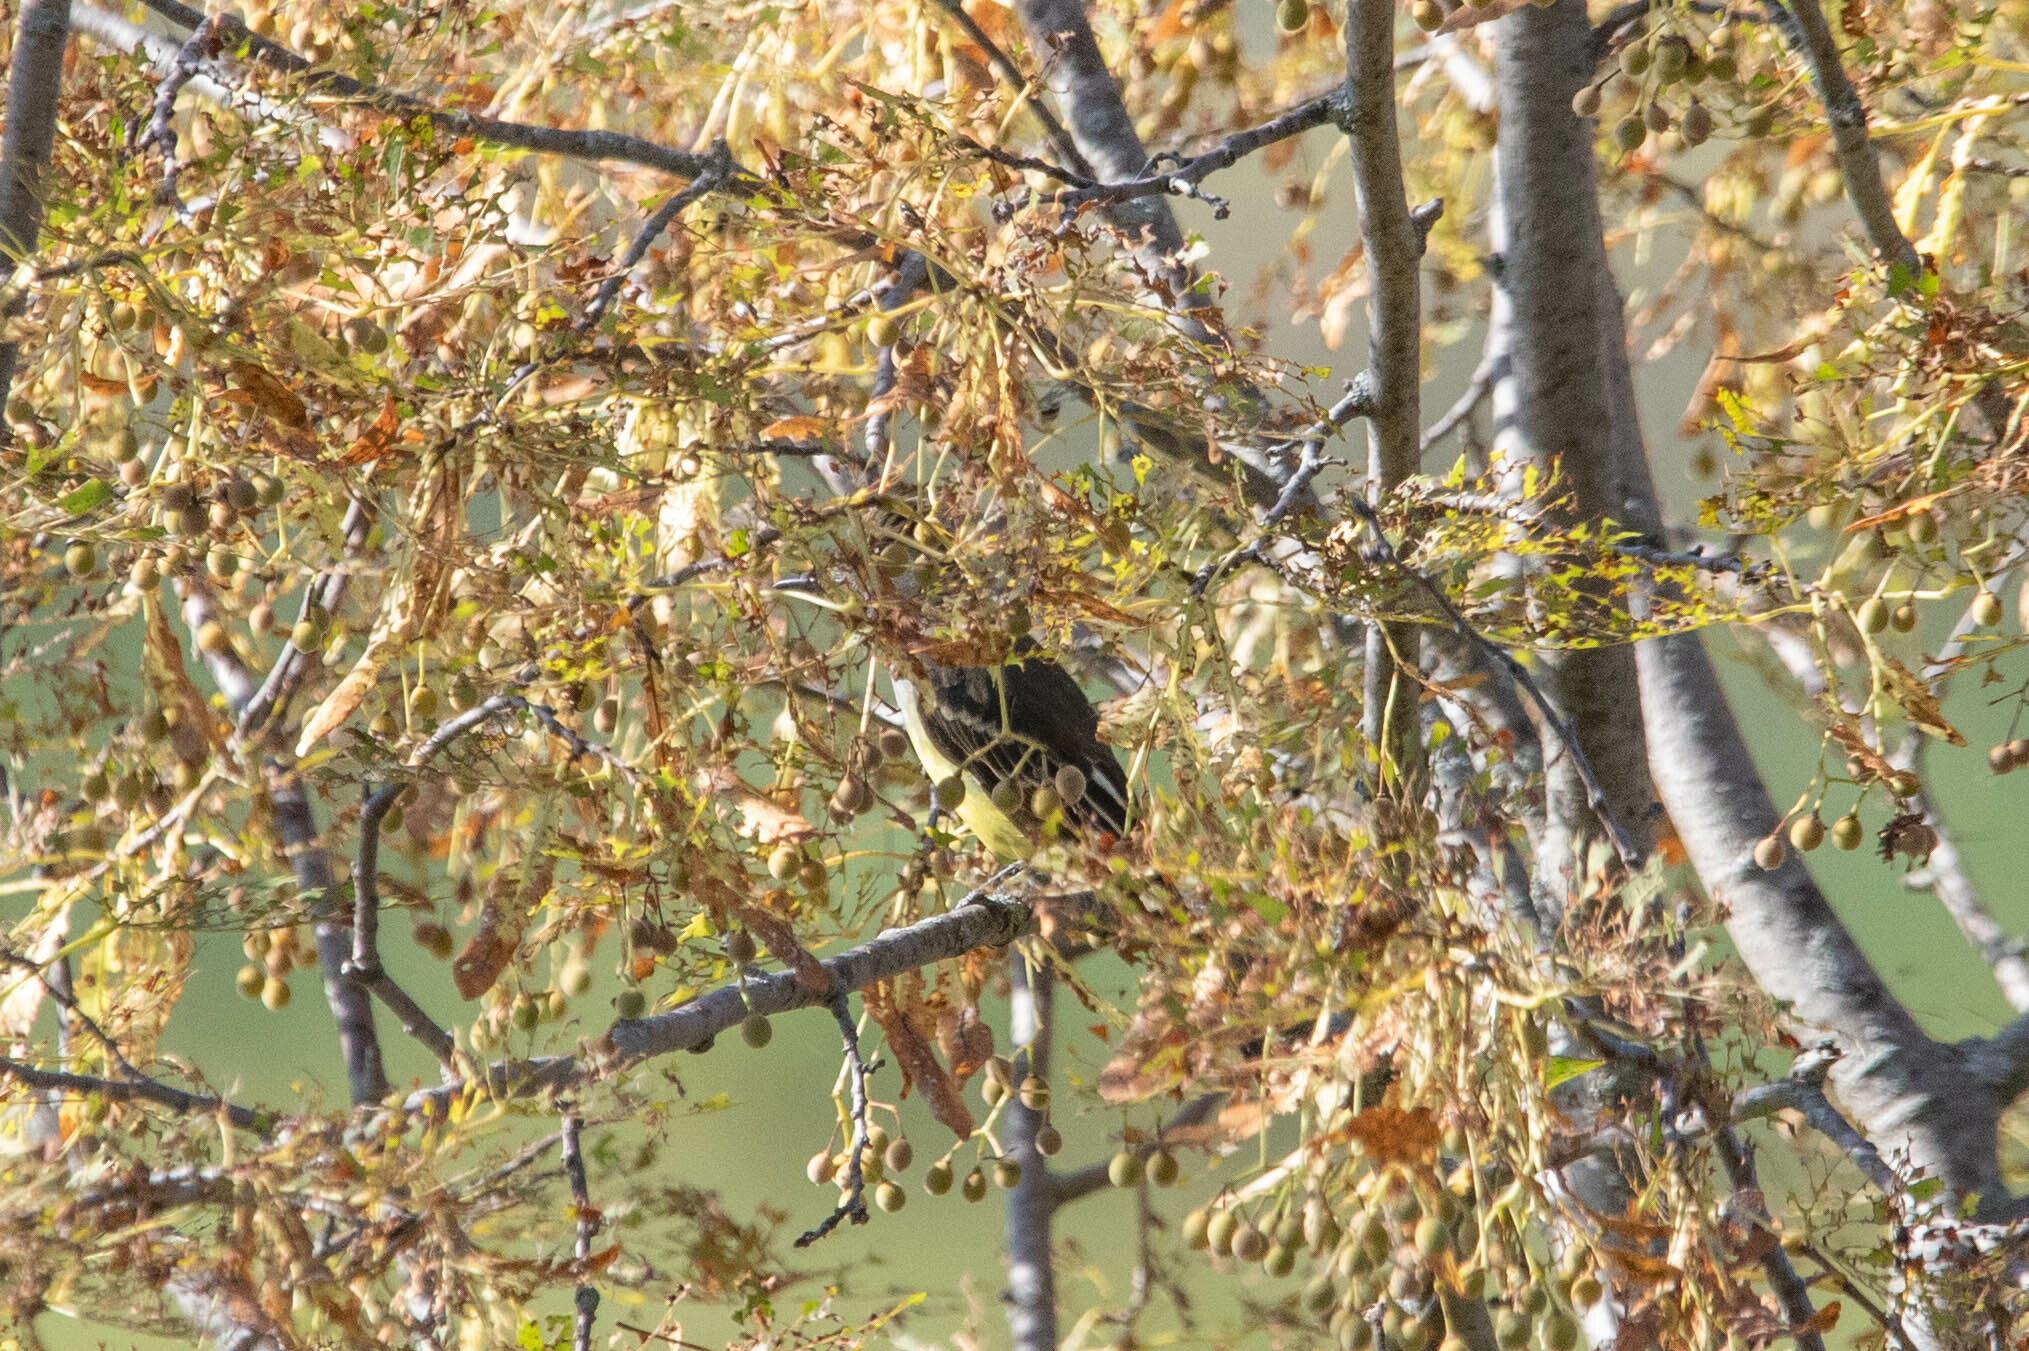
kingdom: Animalia
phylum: Chordata
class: Aves
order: Passeriformes
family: Tyrannidae
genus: Myiarchus
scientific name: Myiarchus crinitus
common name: Great crested flycatcher
